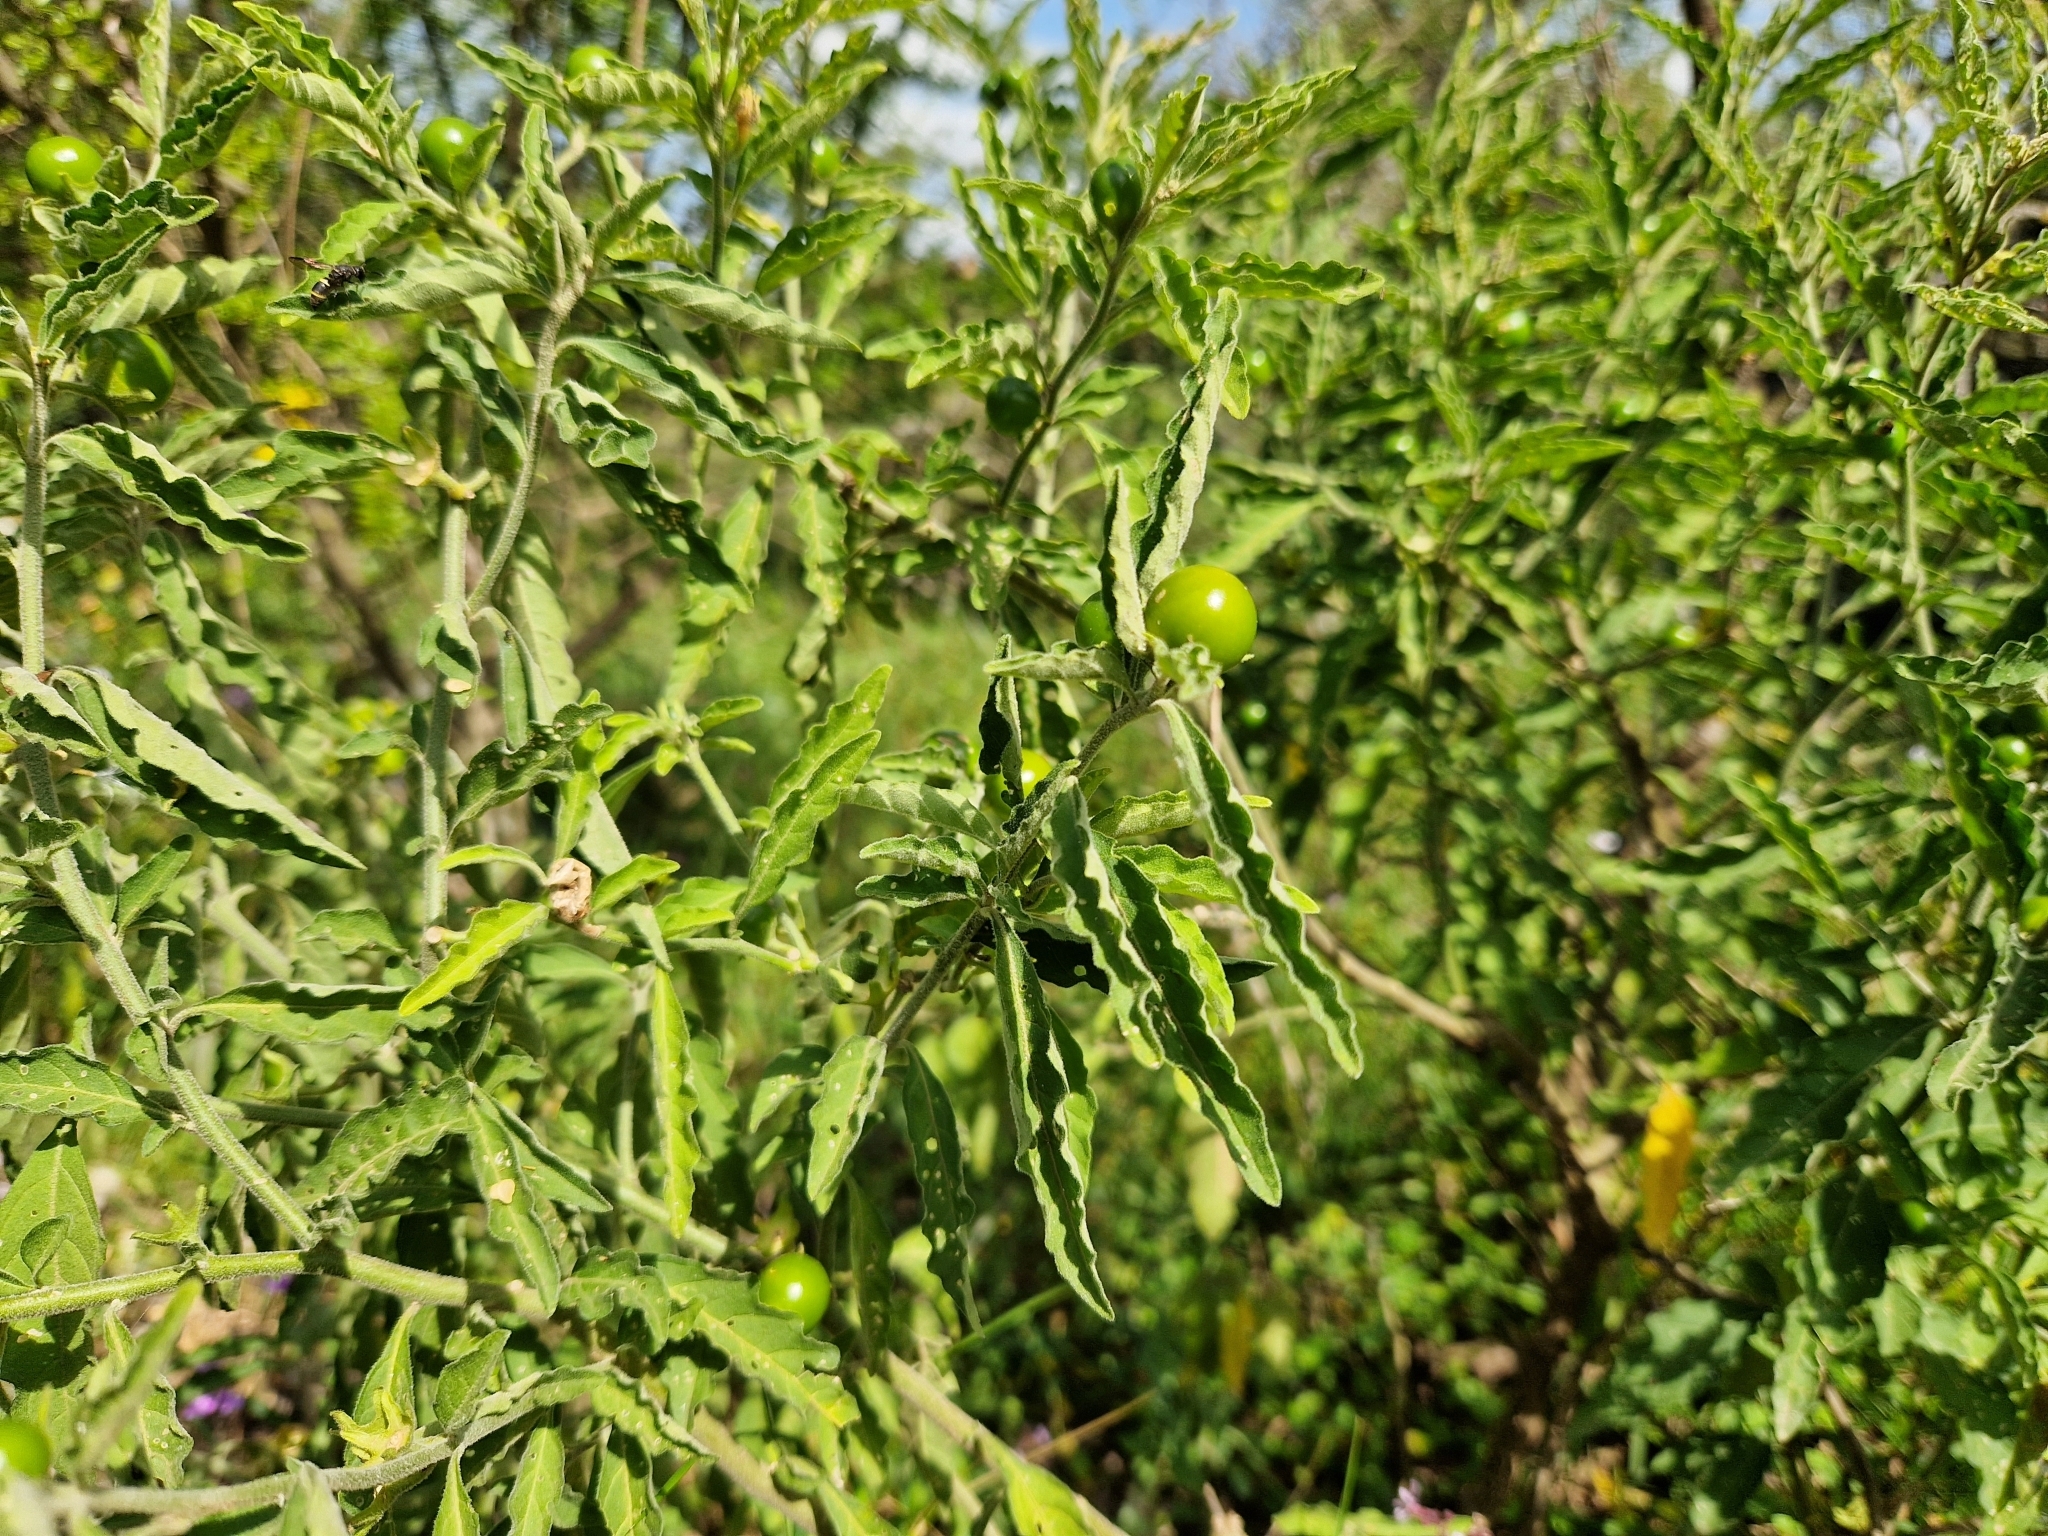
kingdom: Plantae
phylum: Tracheophyta
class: Magnoliopsida
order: Solanales
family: Solanaceae
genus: Solanum
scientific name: Solanum pseudocapsicum
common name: Jerusalem cherry
